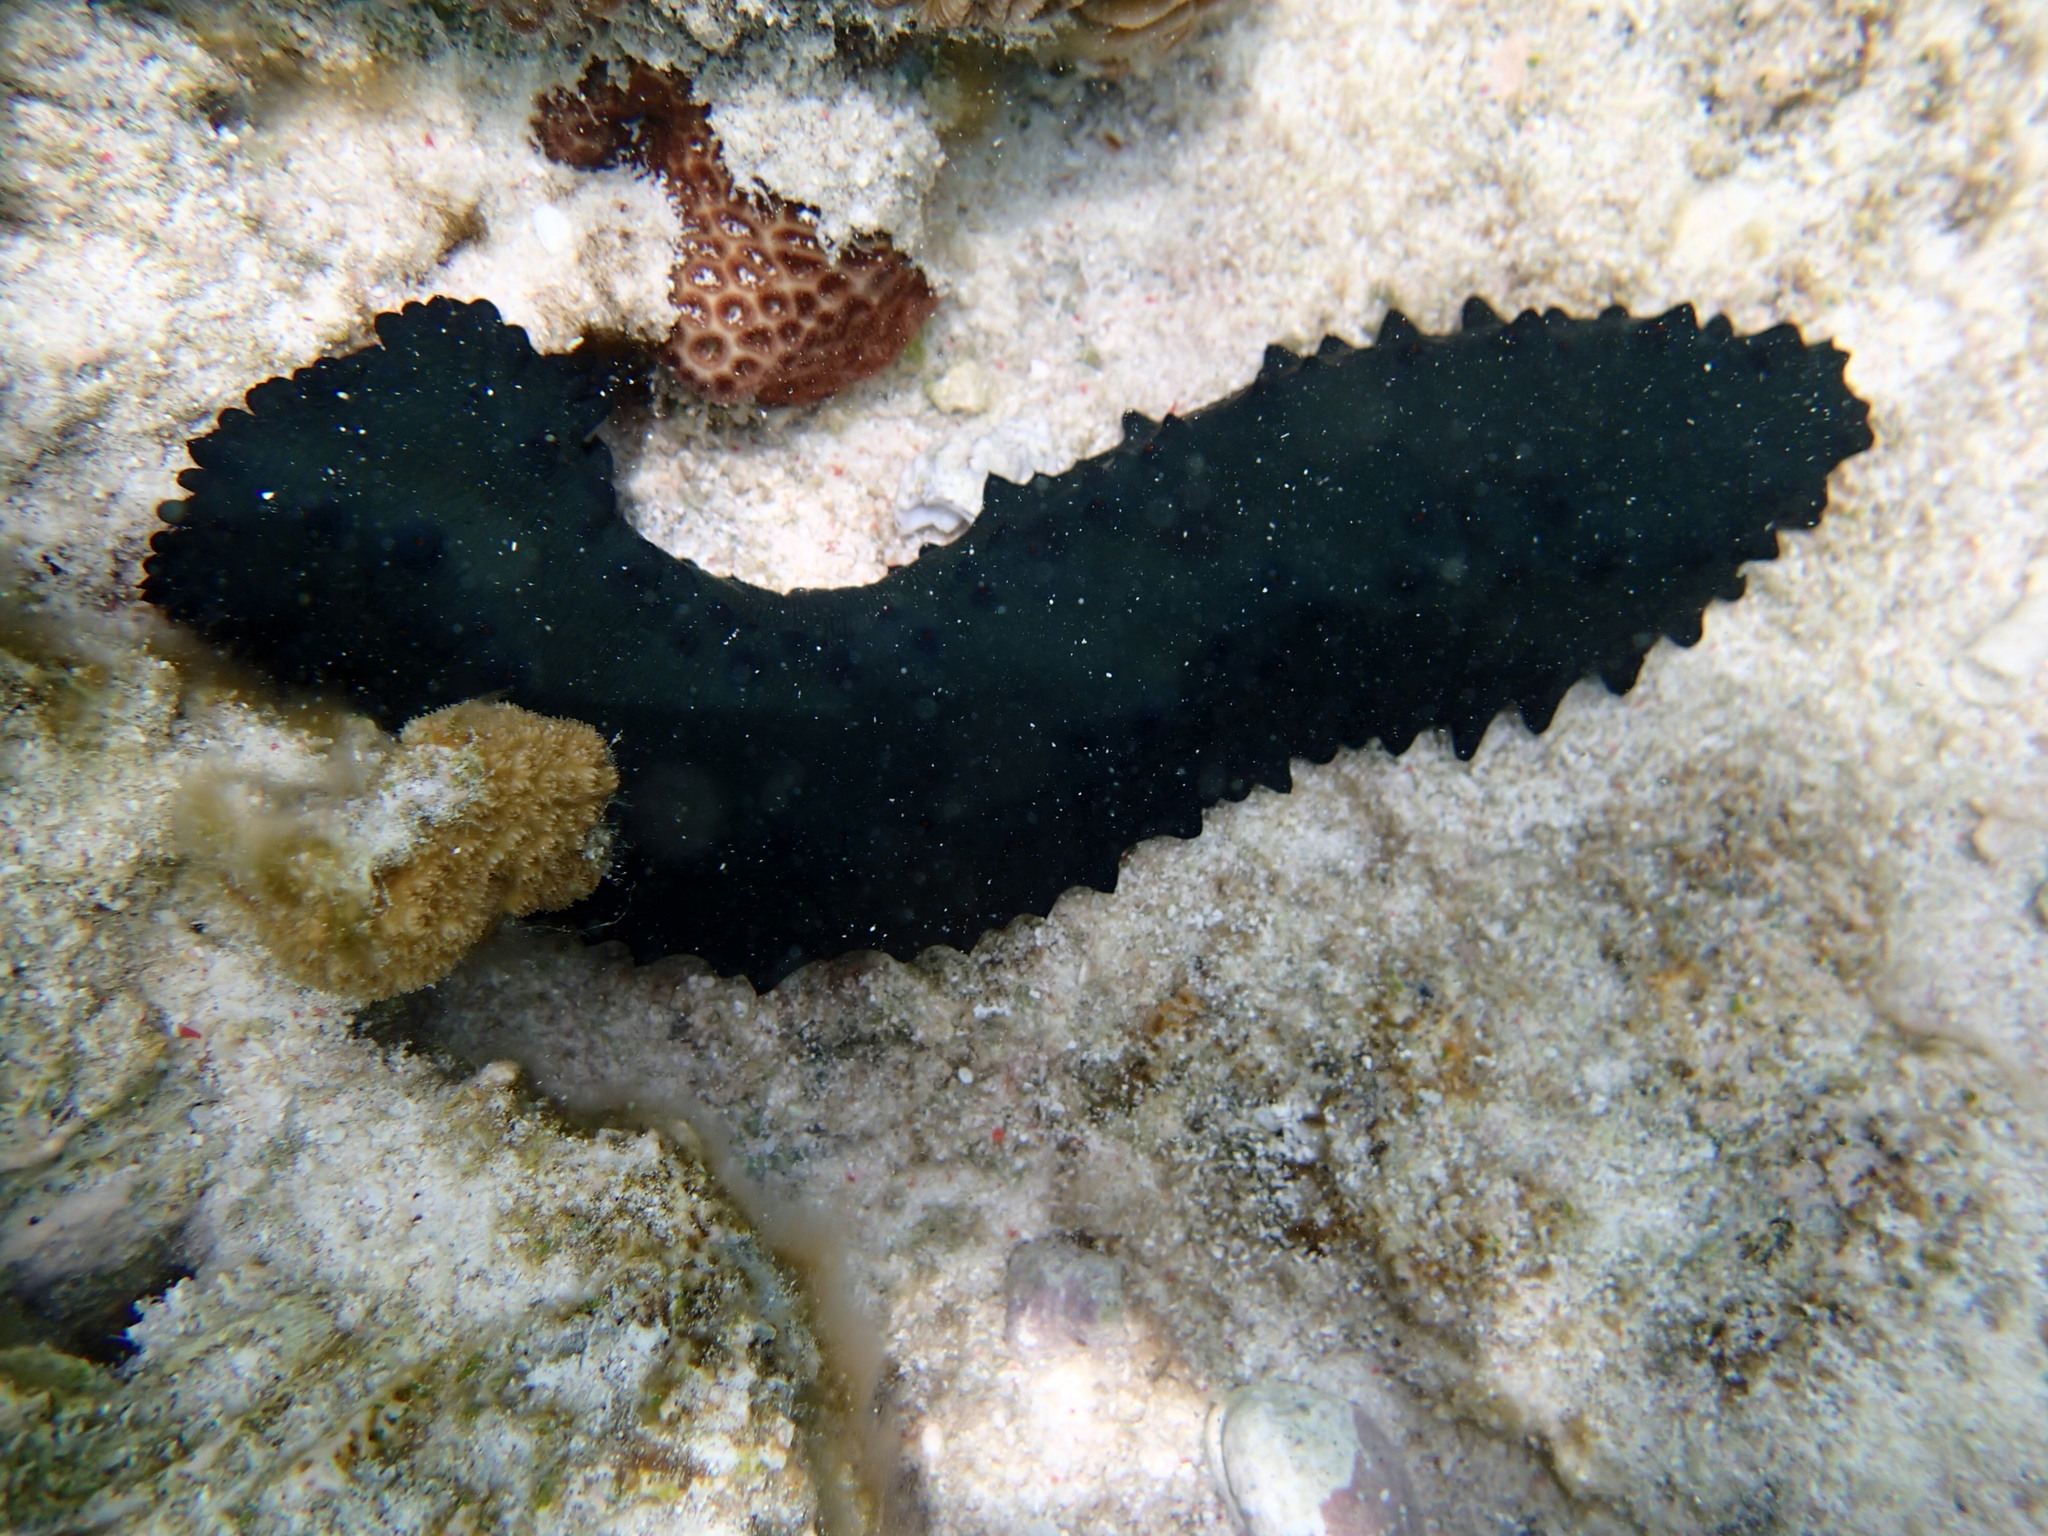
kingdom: Animalia
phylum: Echinodermata
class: Holothuroidea
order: Synallactida
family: Stichopodidae
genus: Stichopus
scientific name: Stichopus chloronotus
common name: Greenfish
